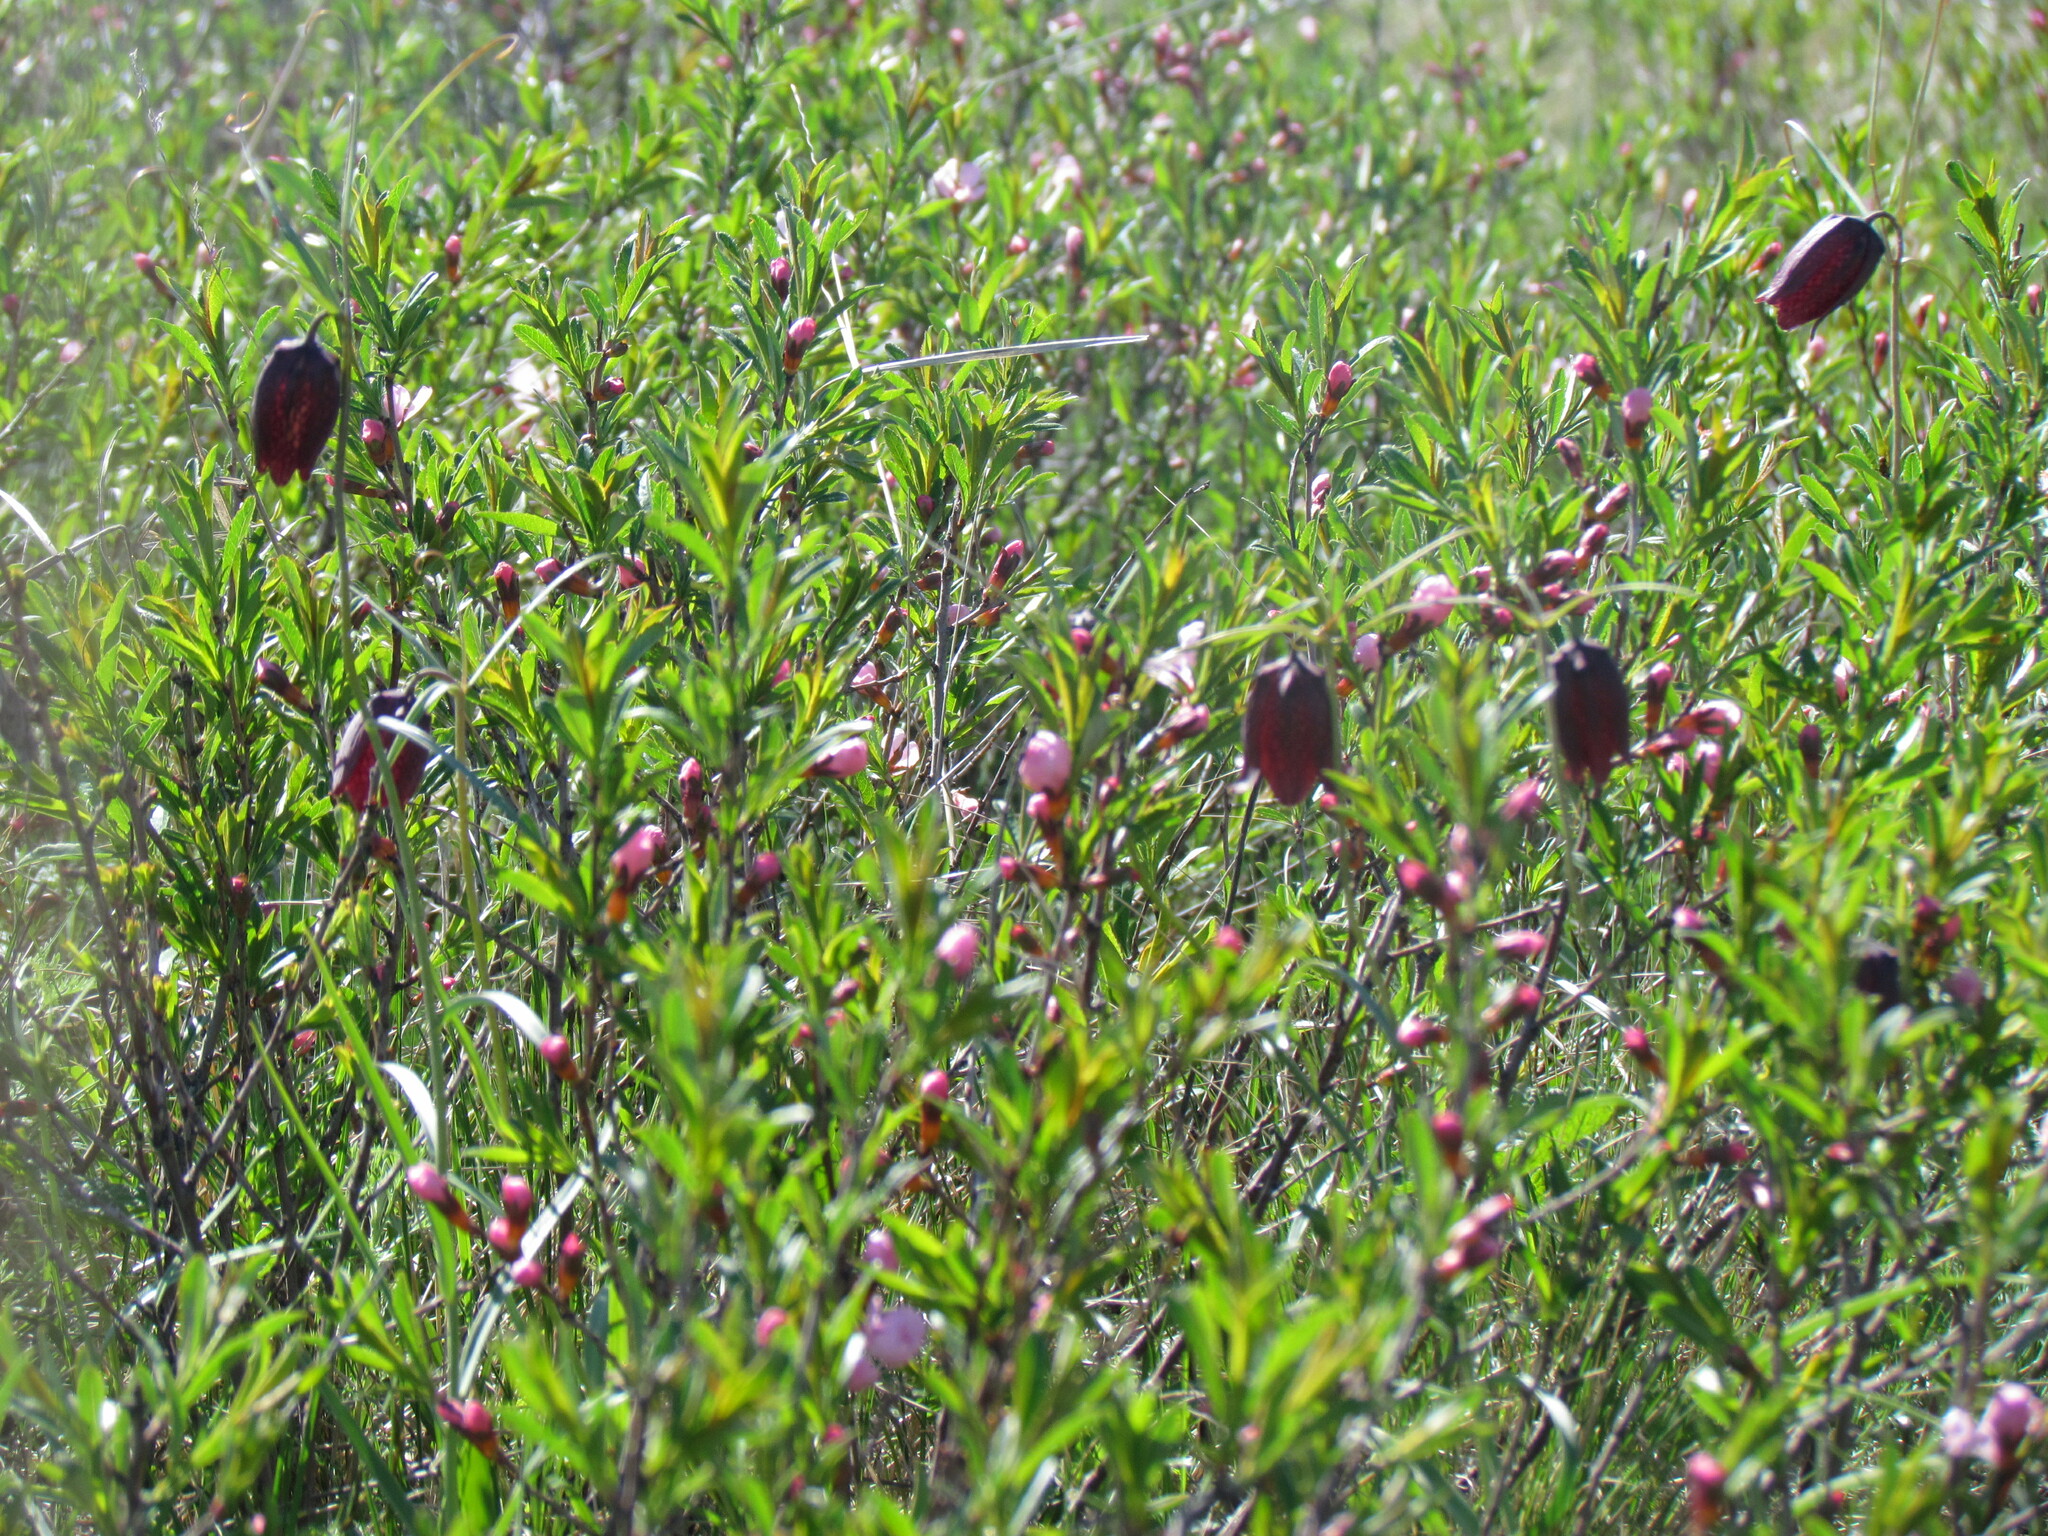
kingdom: Plantae
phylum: Tracheophyta
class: Liliopsida
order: Liliales
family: Liliaceae
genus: Fritillaria
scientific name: Fritillaria ruthenica
